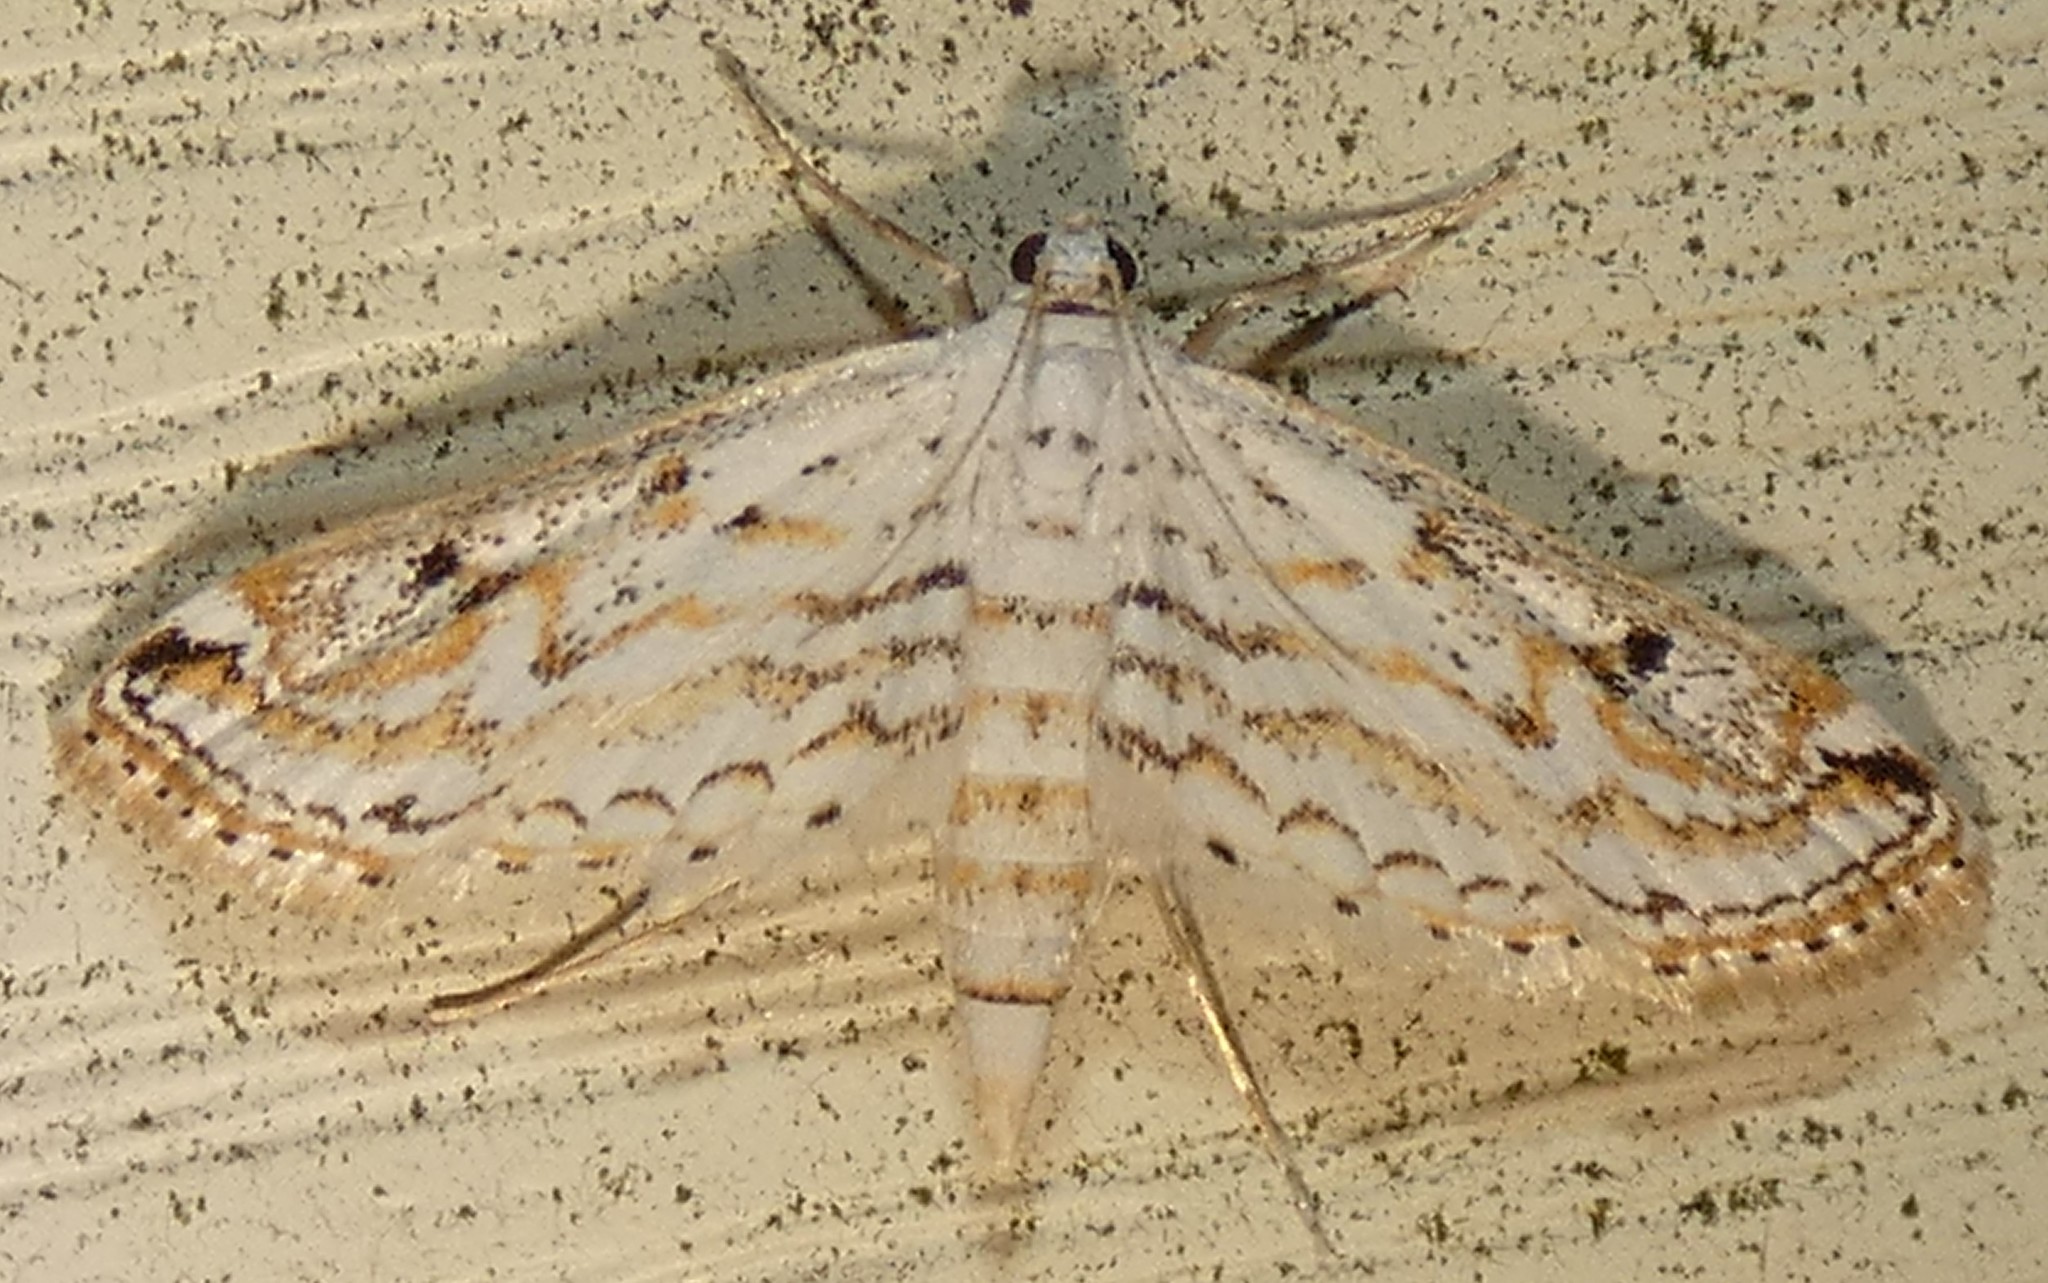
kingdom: Animalia
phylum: Arthropoda
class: Insecta
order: Lepidoptera
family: Crambidae
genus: Parapoynx
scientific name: Parapoynx allionealis
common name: Bladderwort casemaker
